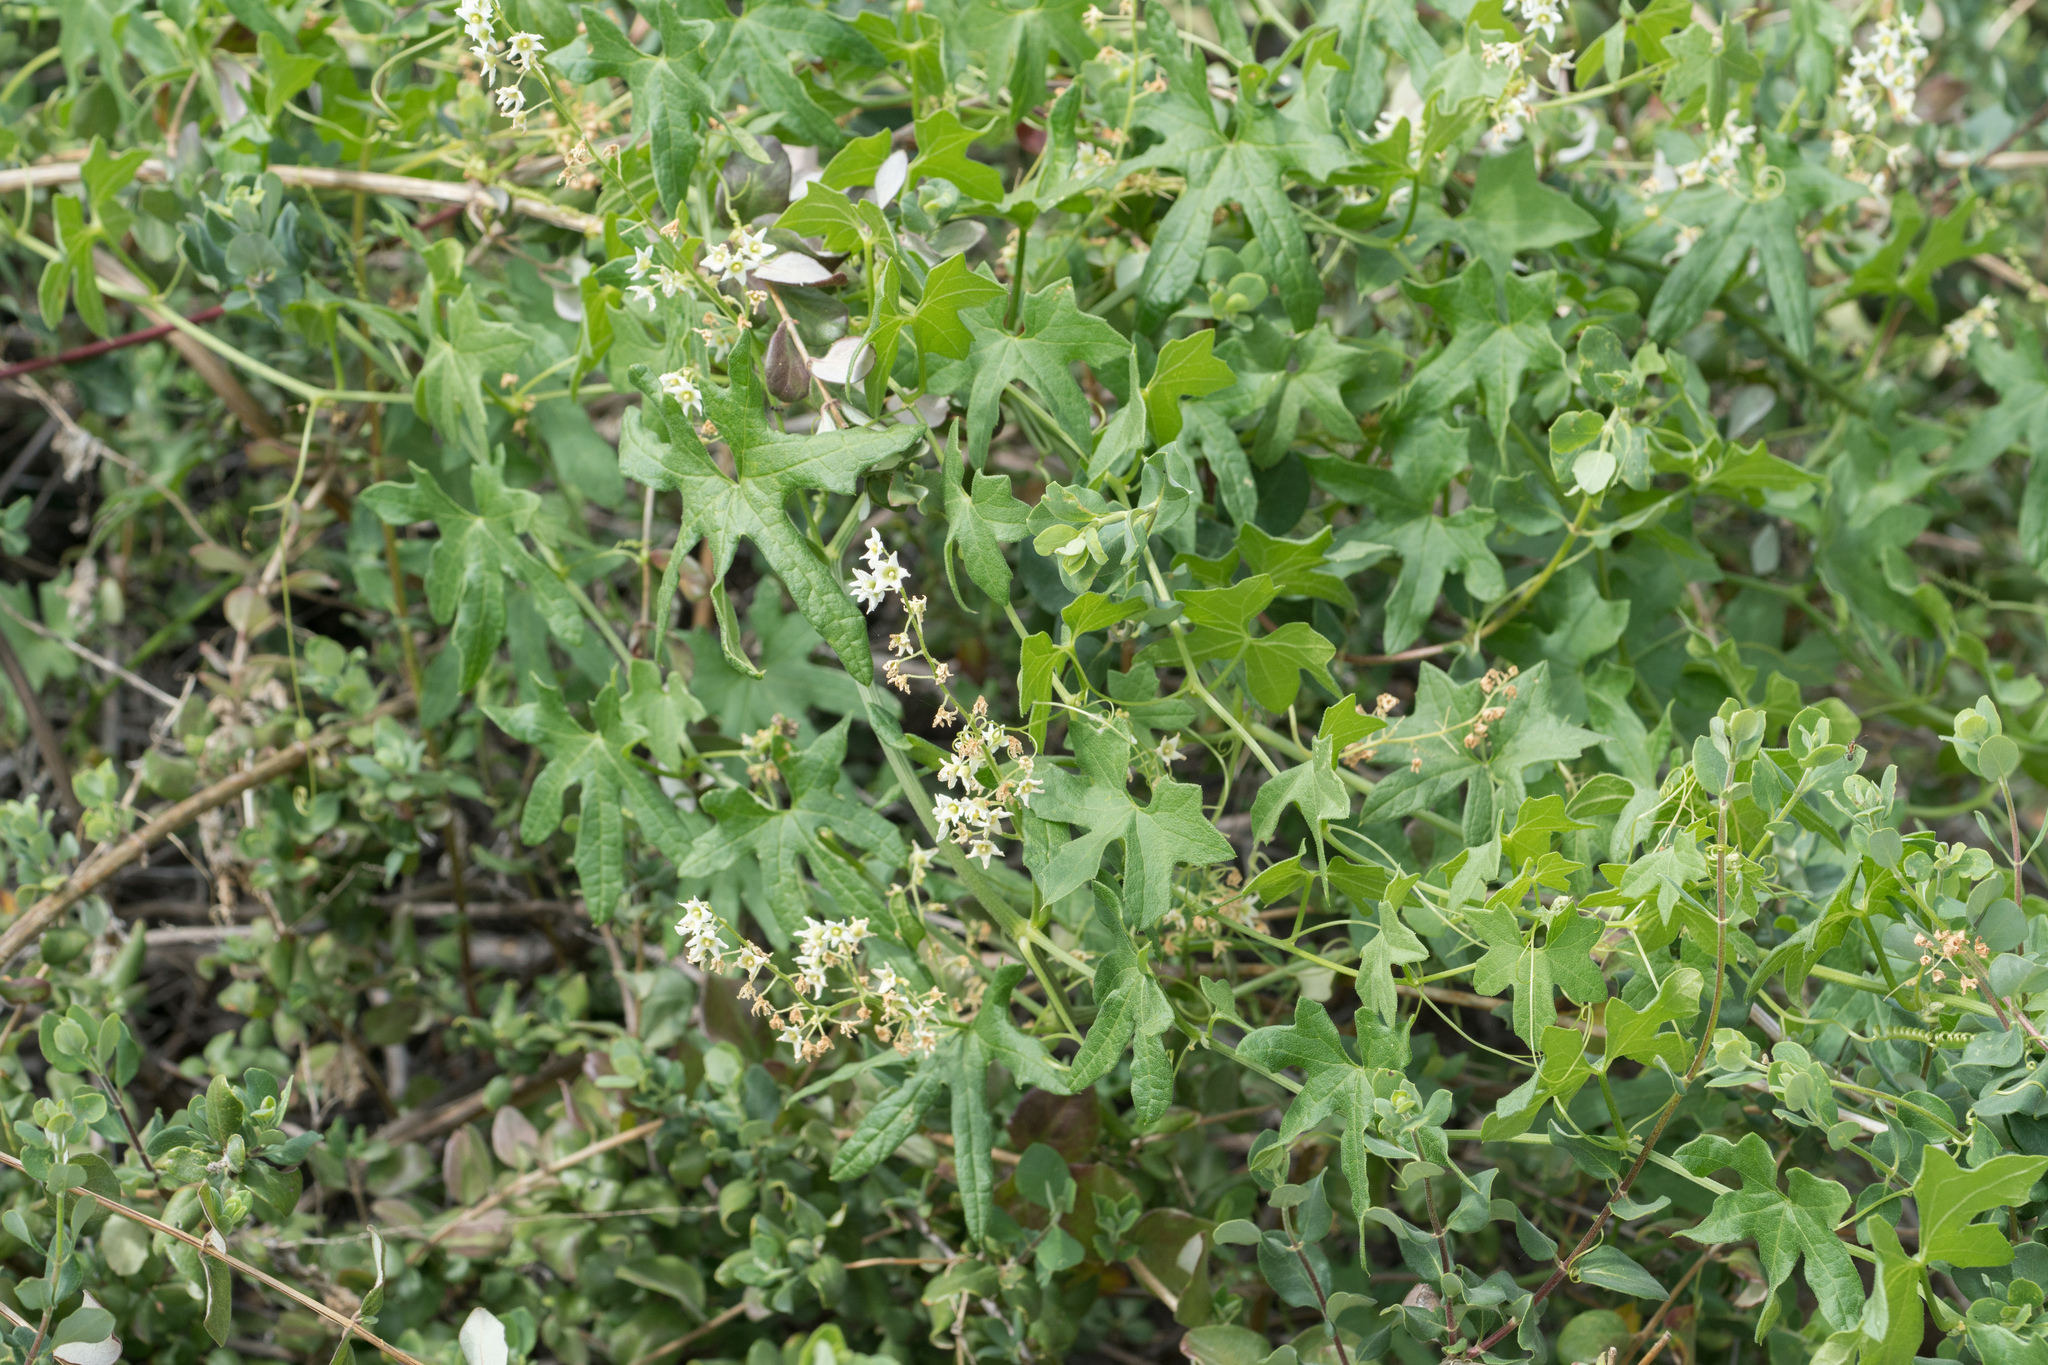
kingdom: Plantae
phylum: Tracheophyta
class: Magnoliopsida
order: Cucurbitales
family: Cucurbitaceae
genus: Marah
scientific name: Marah macrocarpa
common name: Cucamonga manroot
